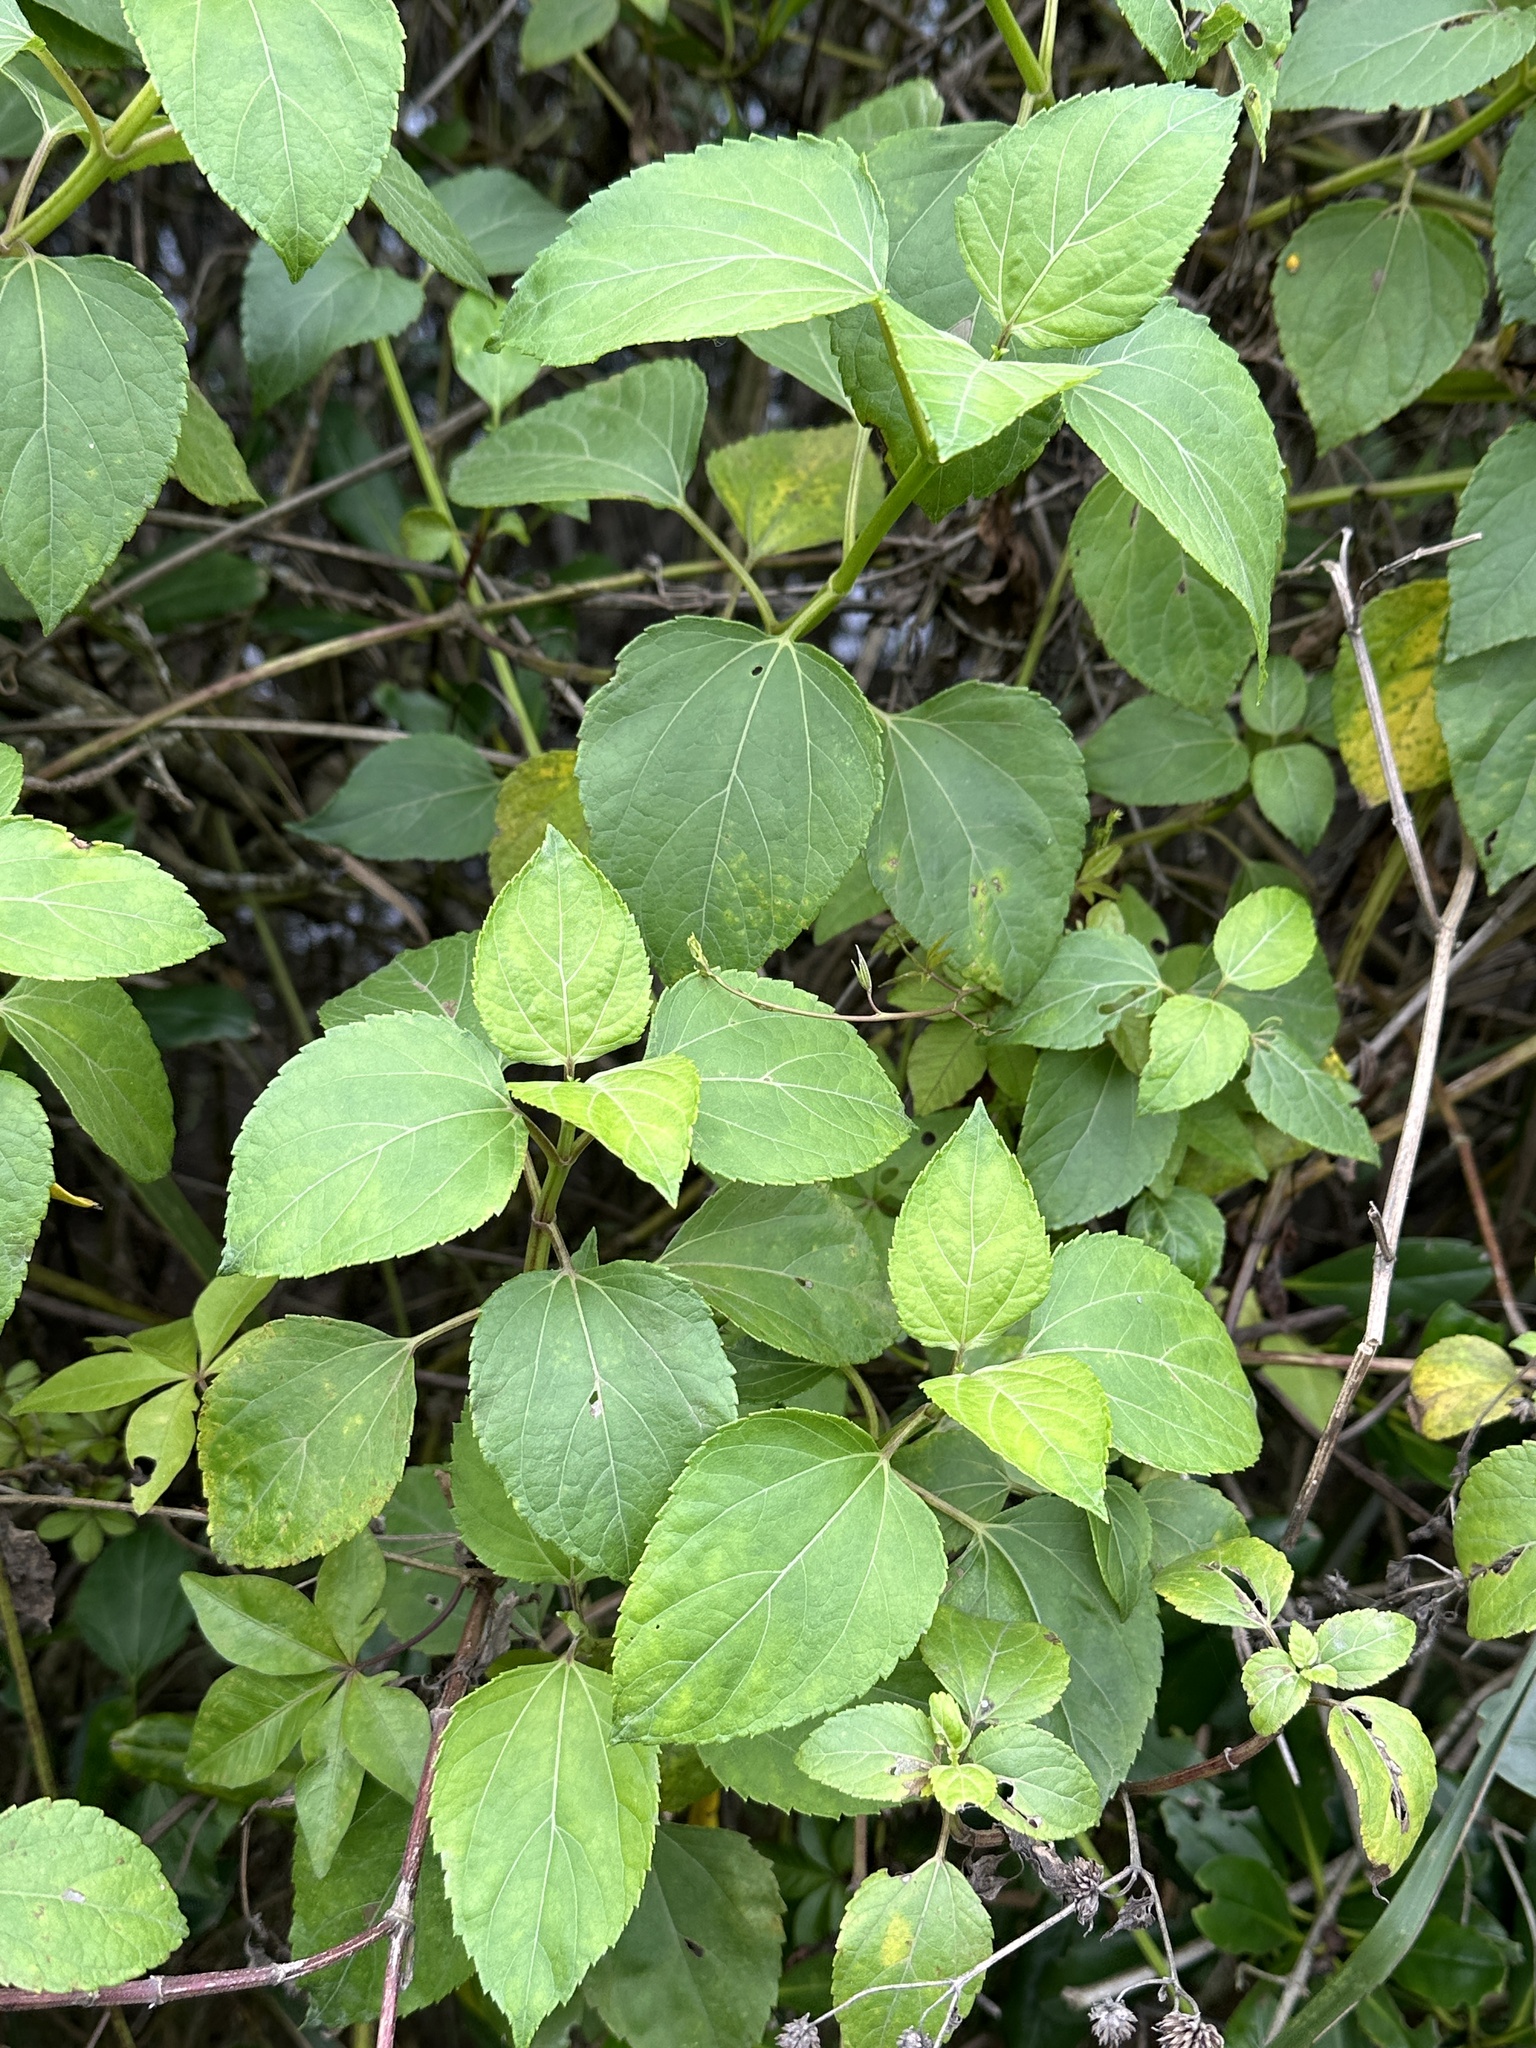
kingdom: Plantae
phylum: Tracheophyta
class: Magnoliopsida
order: Asterales
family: Asteraceae
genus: Wollastonia
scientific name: Wollastonia biflora
